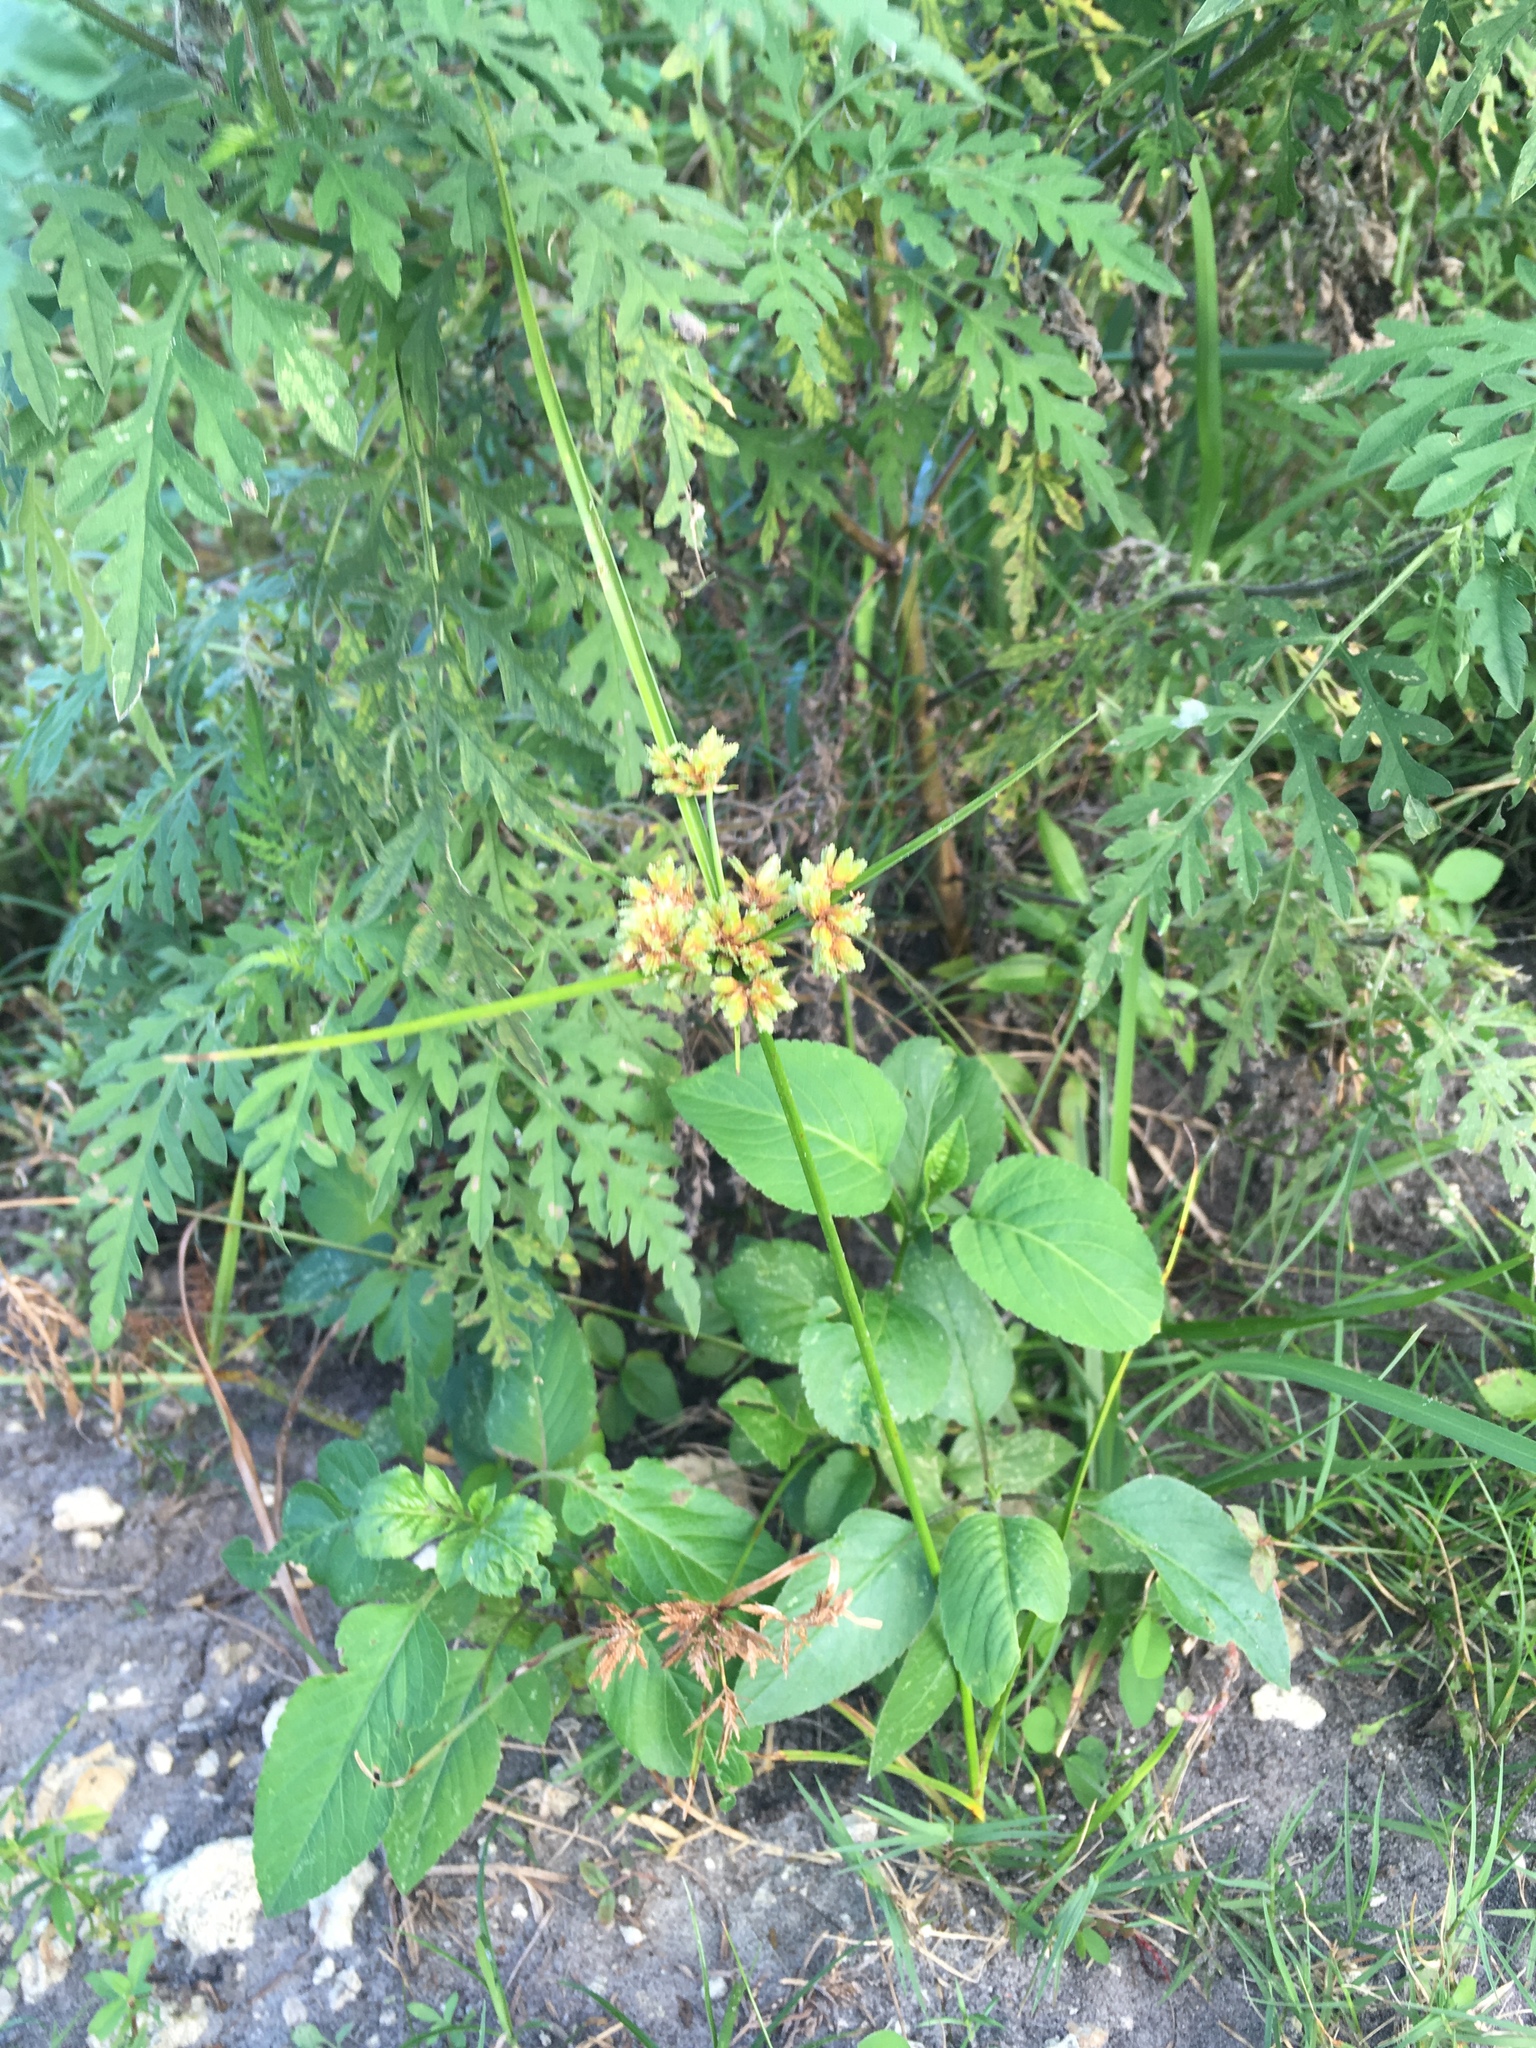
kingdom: Plantae
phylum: Tracheophyta
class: Liliopsida
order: Poales
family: Cyperaceae
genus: Cyperus
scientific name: Cyperus surinamensis
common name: Tropical flat sedge
